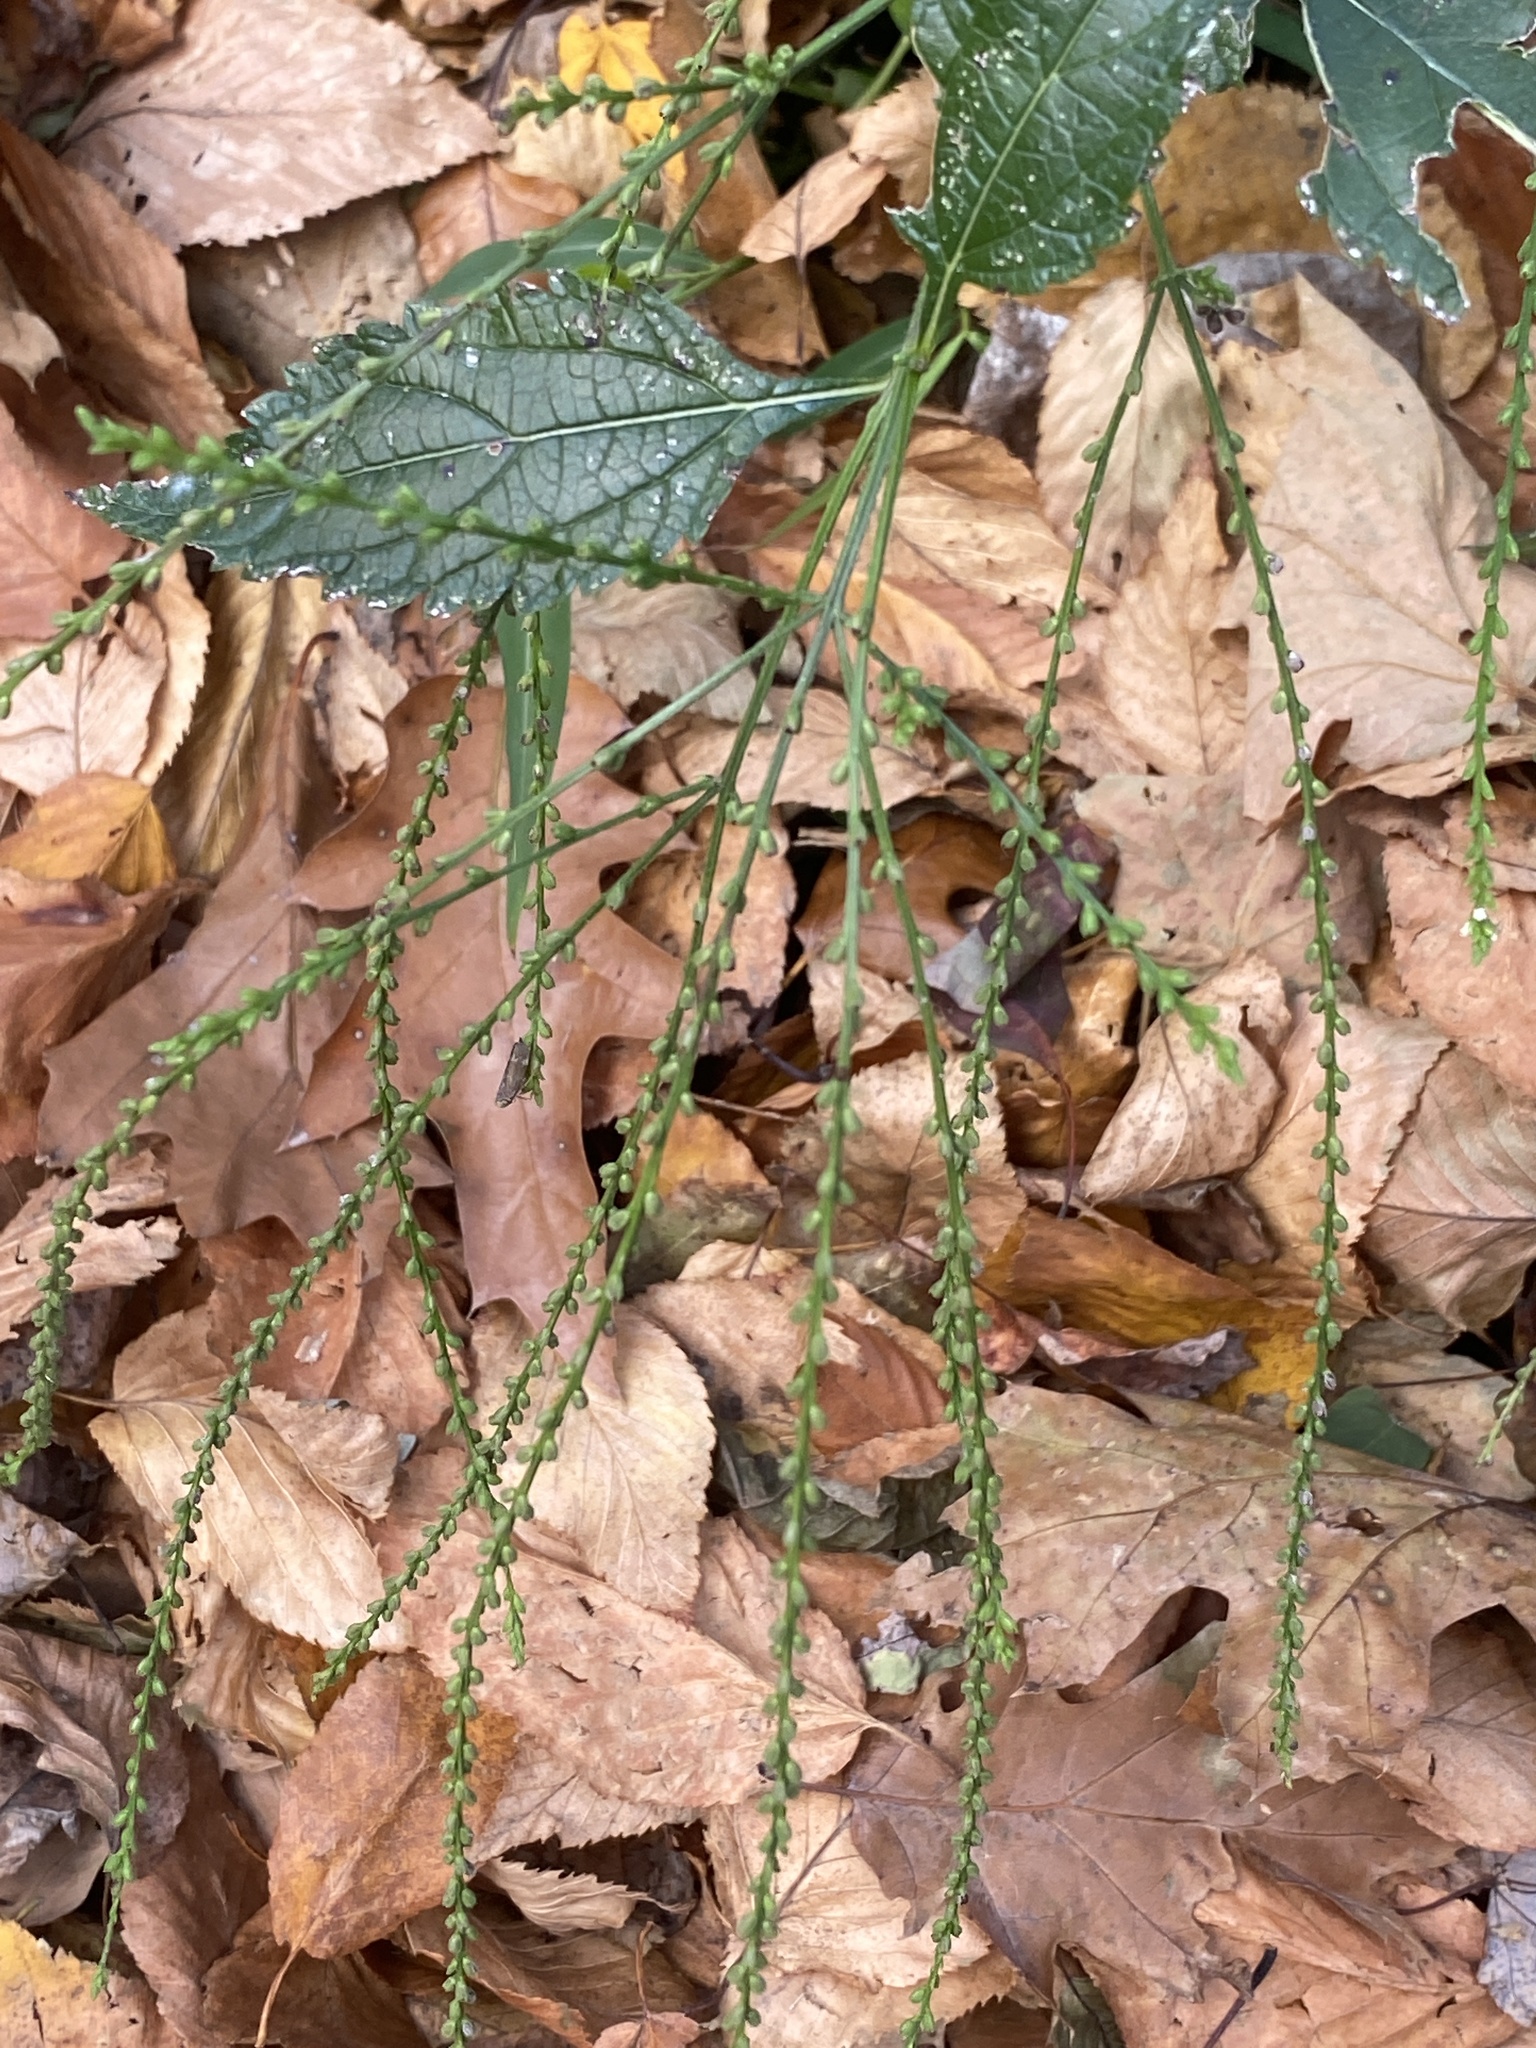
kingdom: Plantae
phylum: Tracheophyta
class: Magnoliopsida
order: Lamiales
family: Verbenaceae
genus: Verbena
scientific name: Verbena urticifolia
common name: Nettle-leaved vervain
